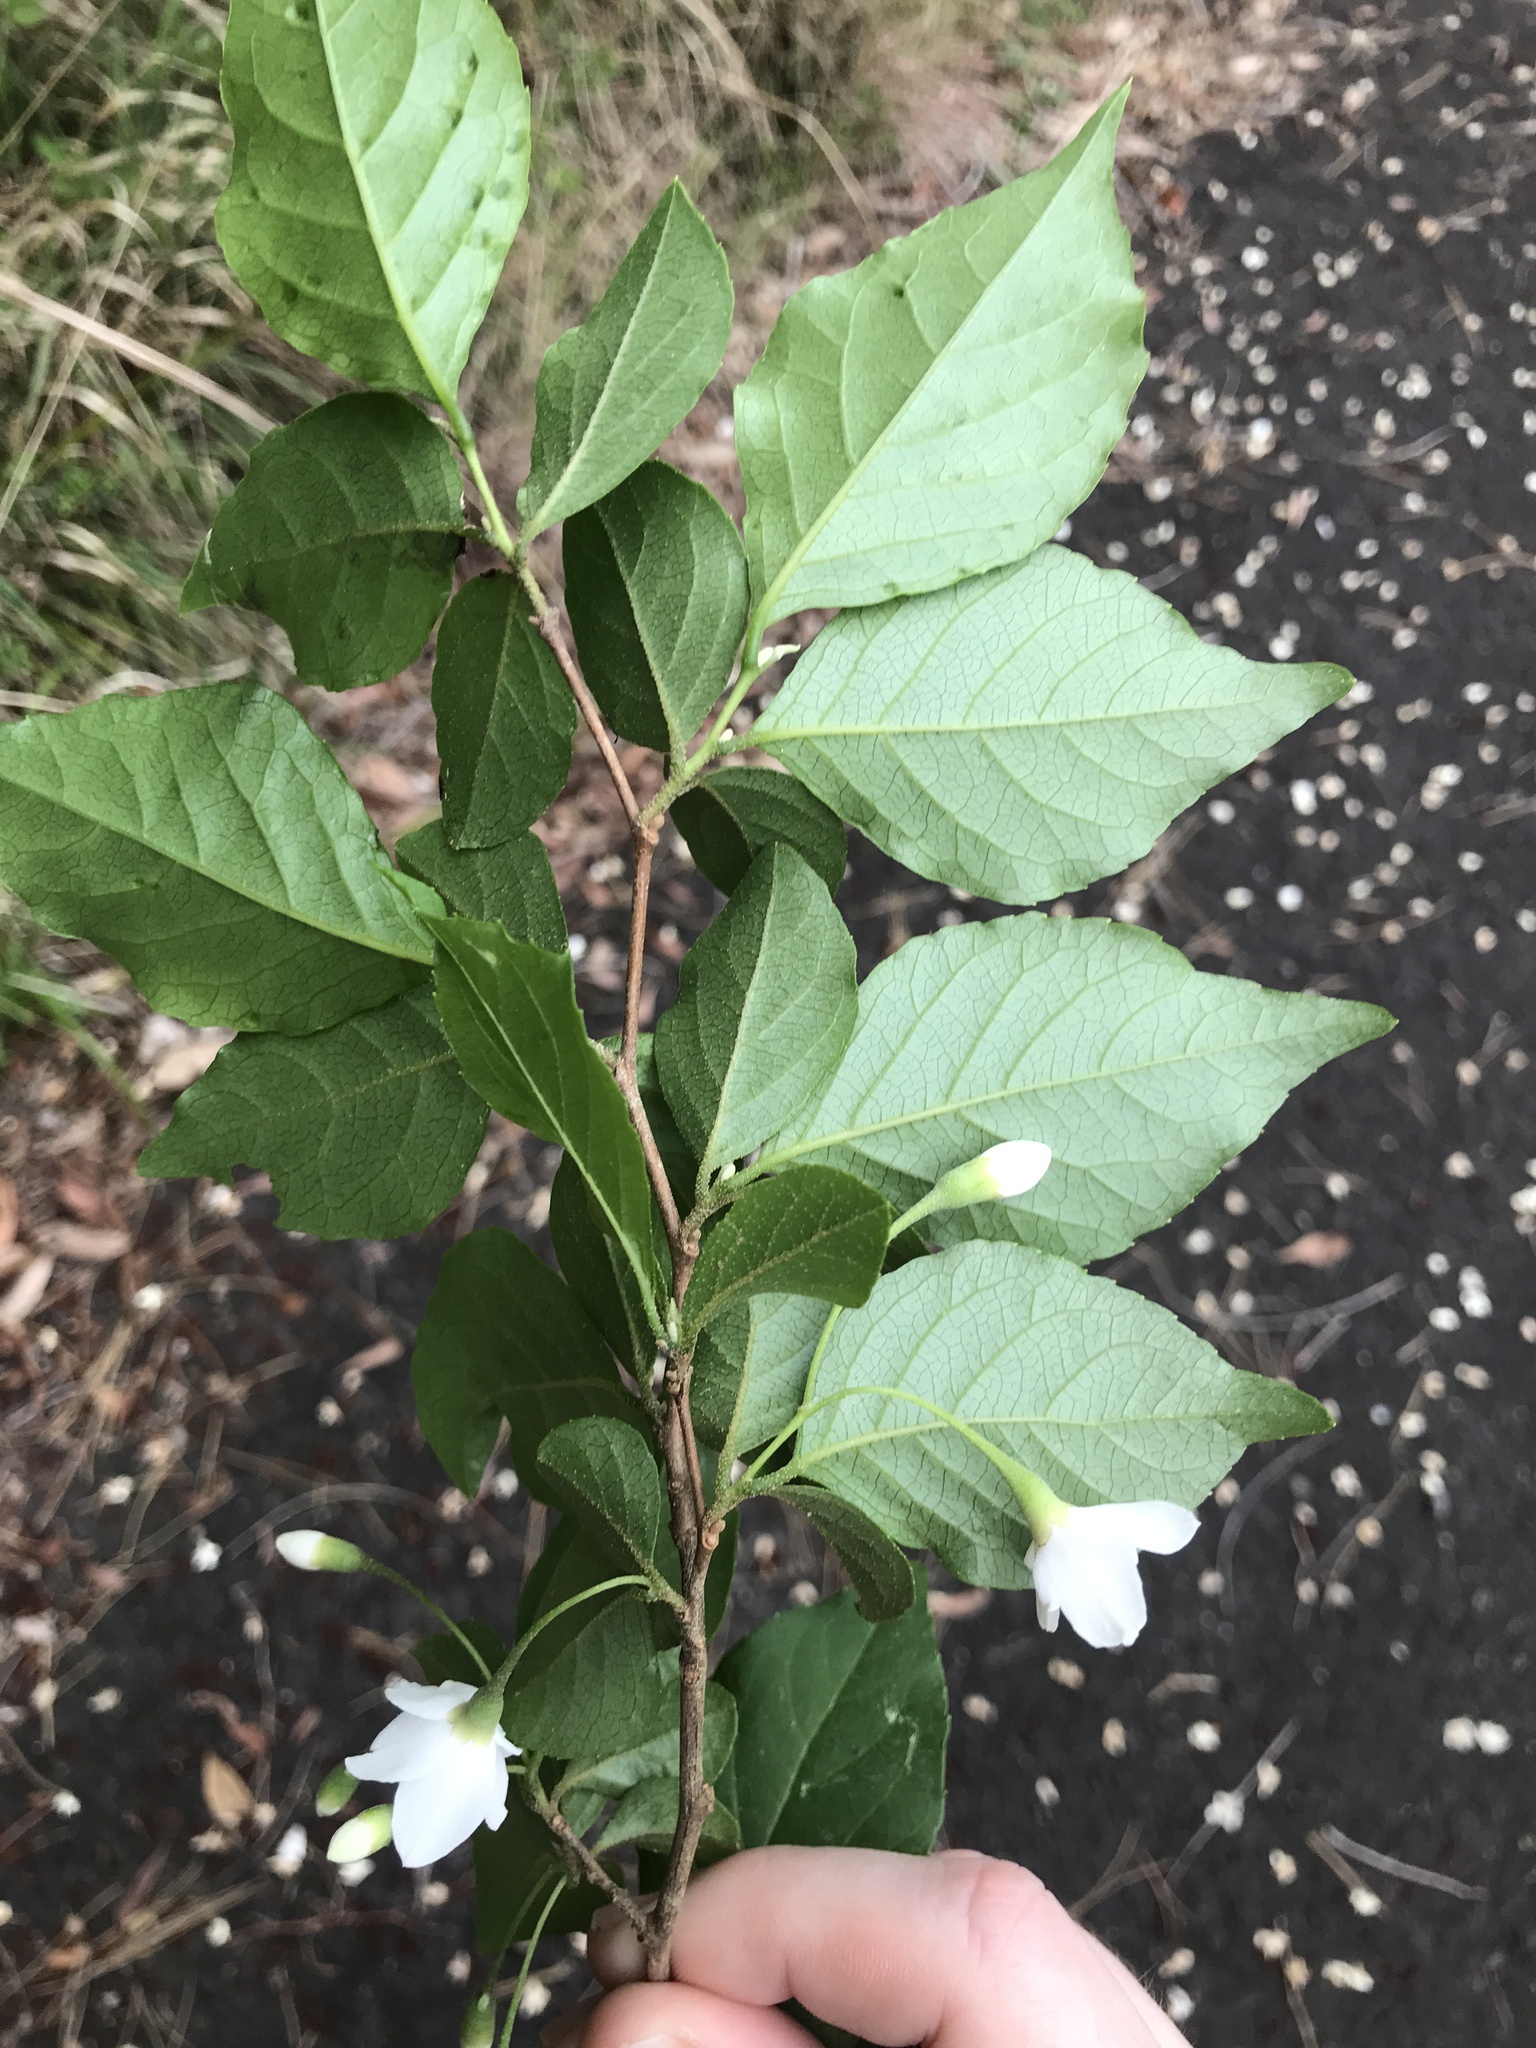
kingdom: Plantae
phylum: Tracheophyta
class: Magnoliopsida
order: Ericales
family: Styracaceae
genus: Styrax
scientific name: Styrax japonicus
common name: Japanese snowbell
